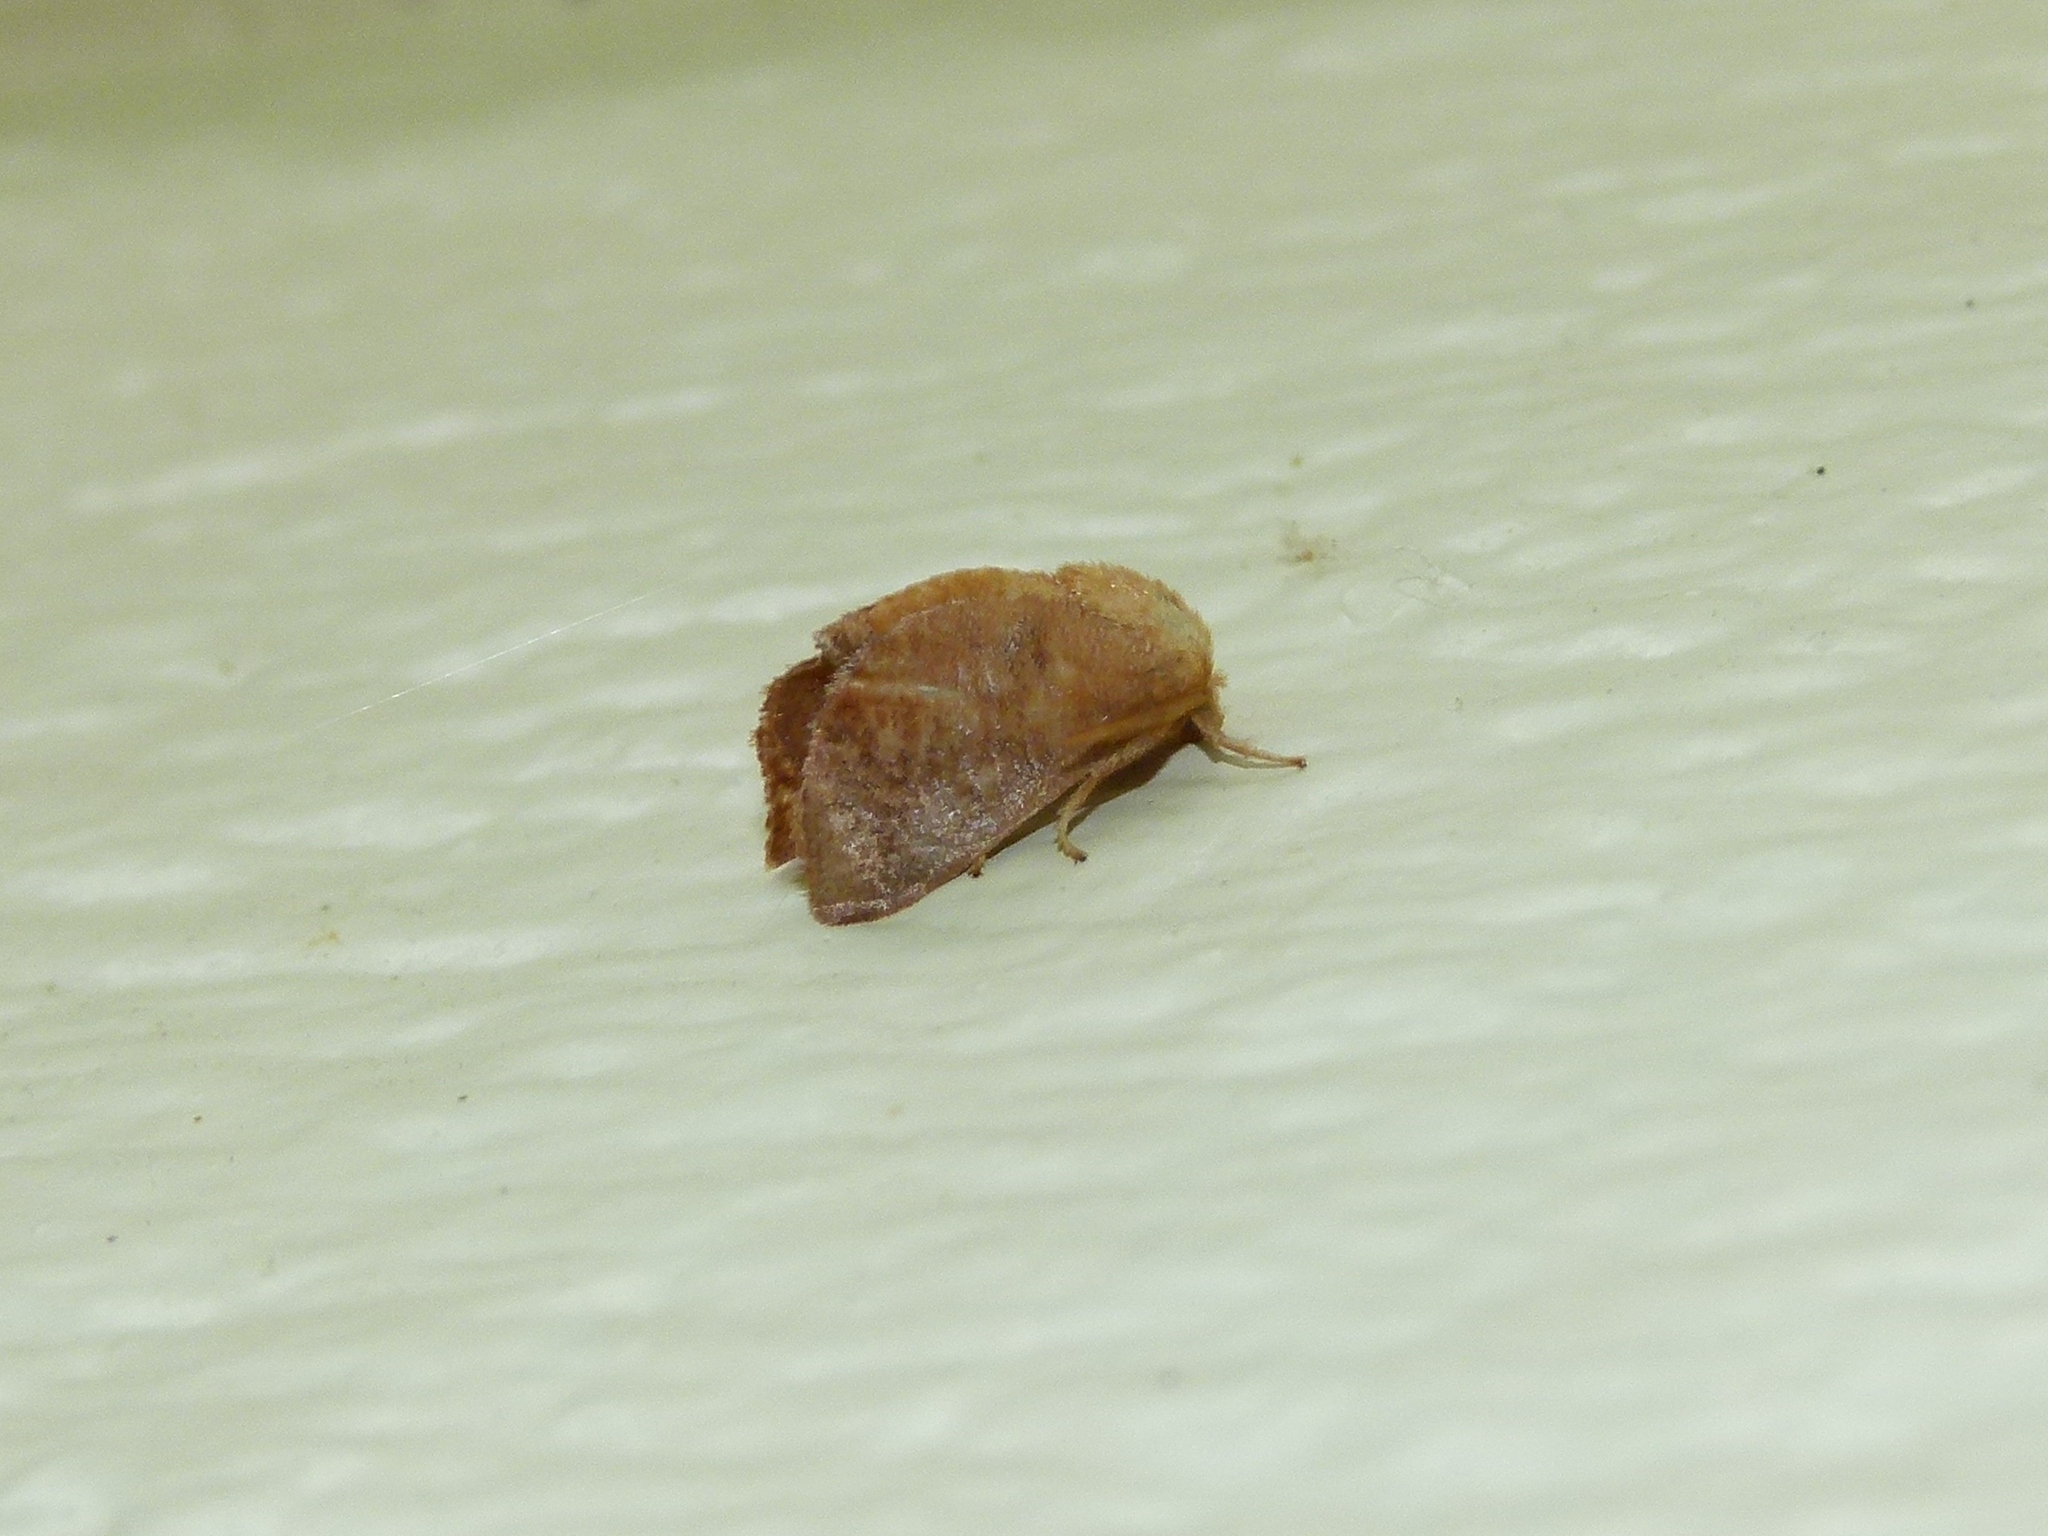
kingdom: Animalia
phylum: Arthropoda
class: Insecta
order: Lepidoptera
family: Limacodidae
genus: Isa
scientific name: Isa textula
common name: Crowned slug moth
